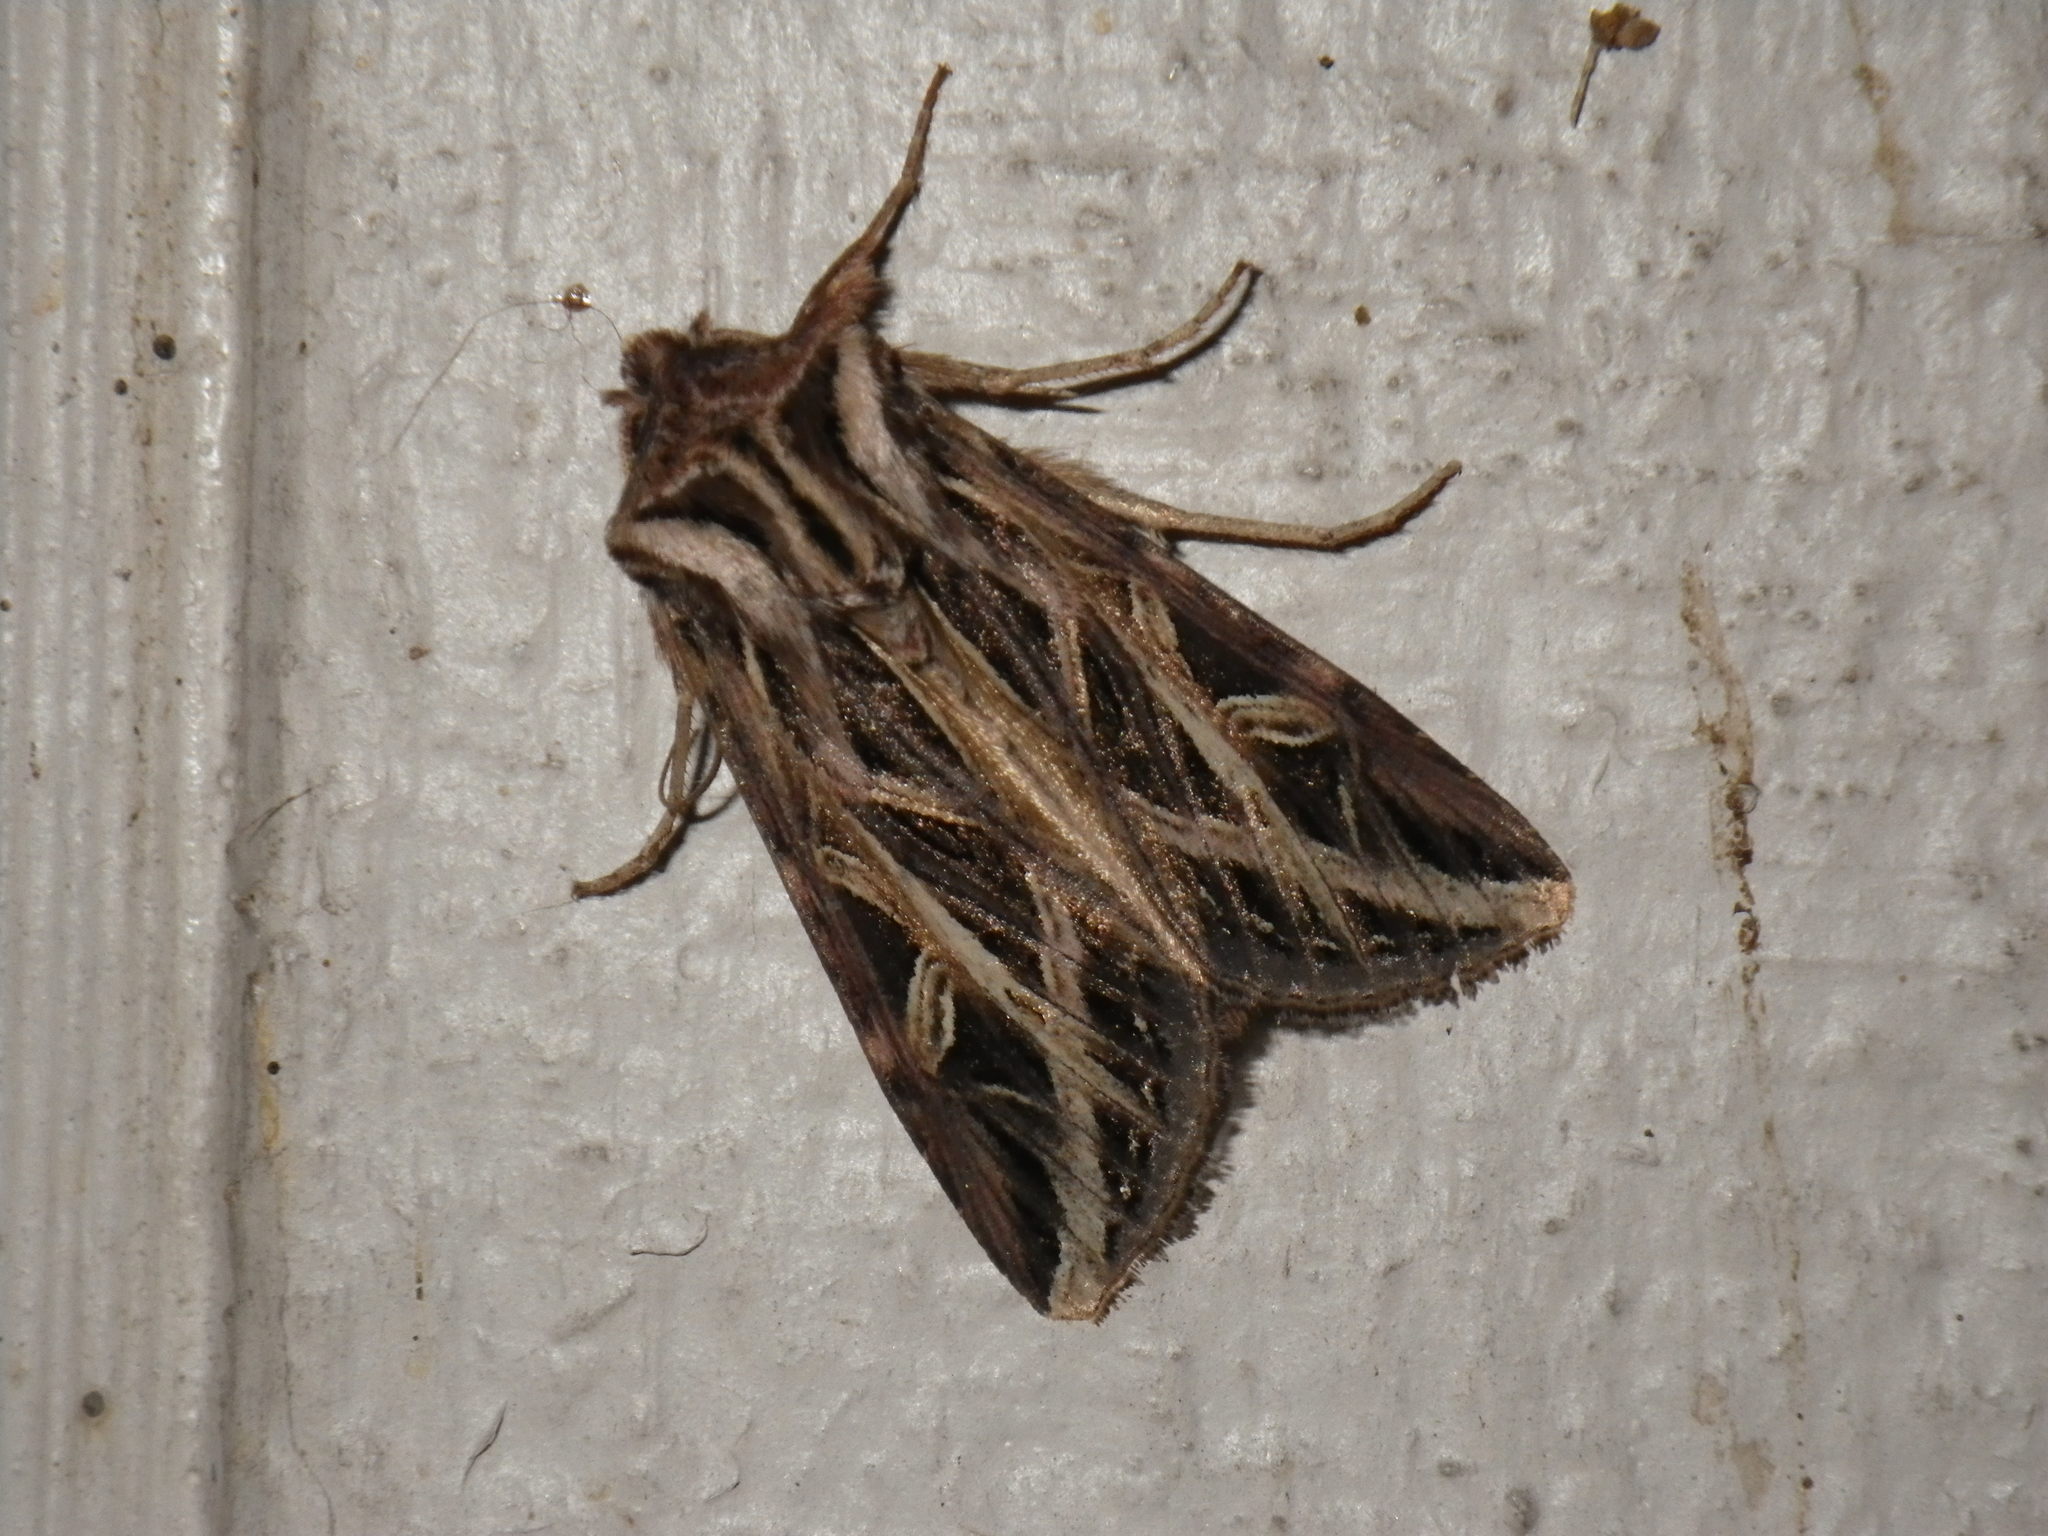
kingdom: Animalia
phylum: Arthropoda
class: Insecta
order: Lepidoptera
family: Noctuidae
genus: Dargida
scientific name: Dargida procinctus
